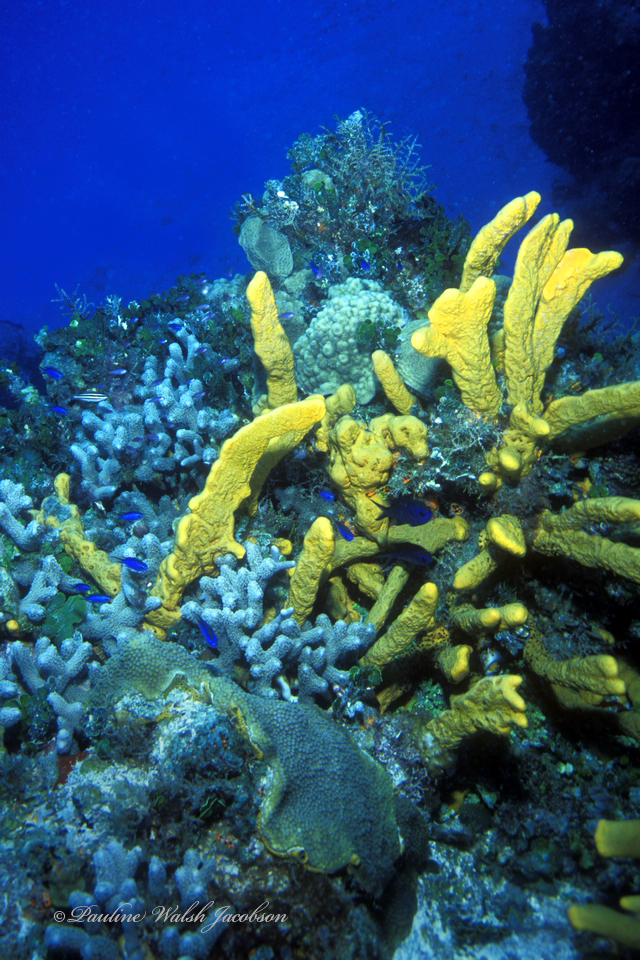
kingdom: Animalia
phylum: Porifera
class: Demospongiae
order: Agelasida
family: Agelasidae
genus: Agelas
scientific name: Agelas sceptrum
